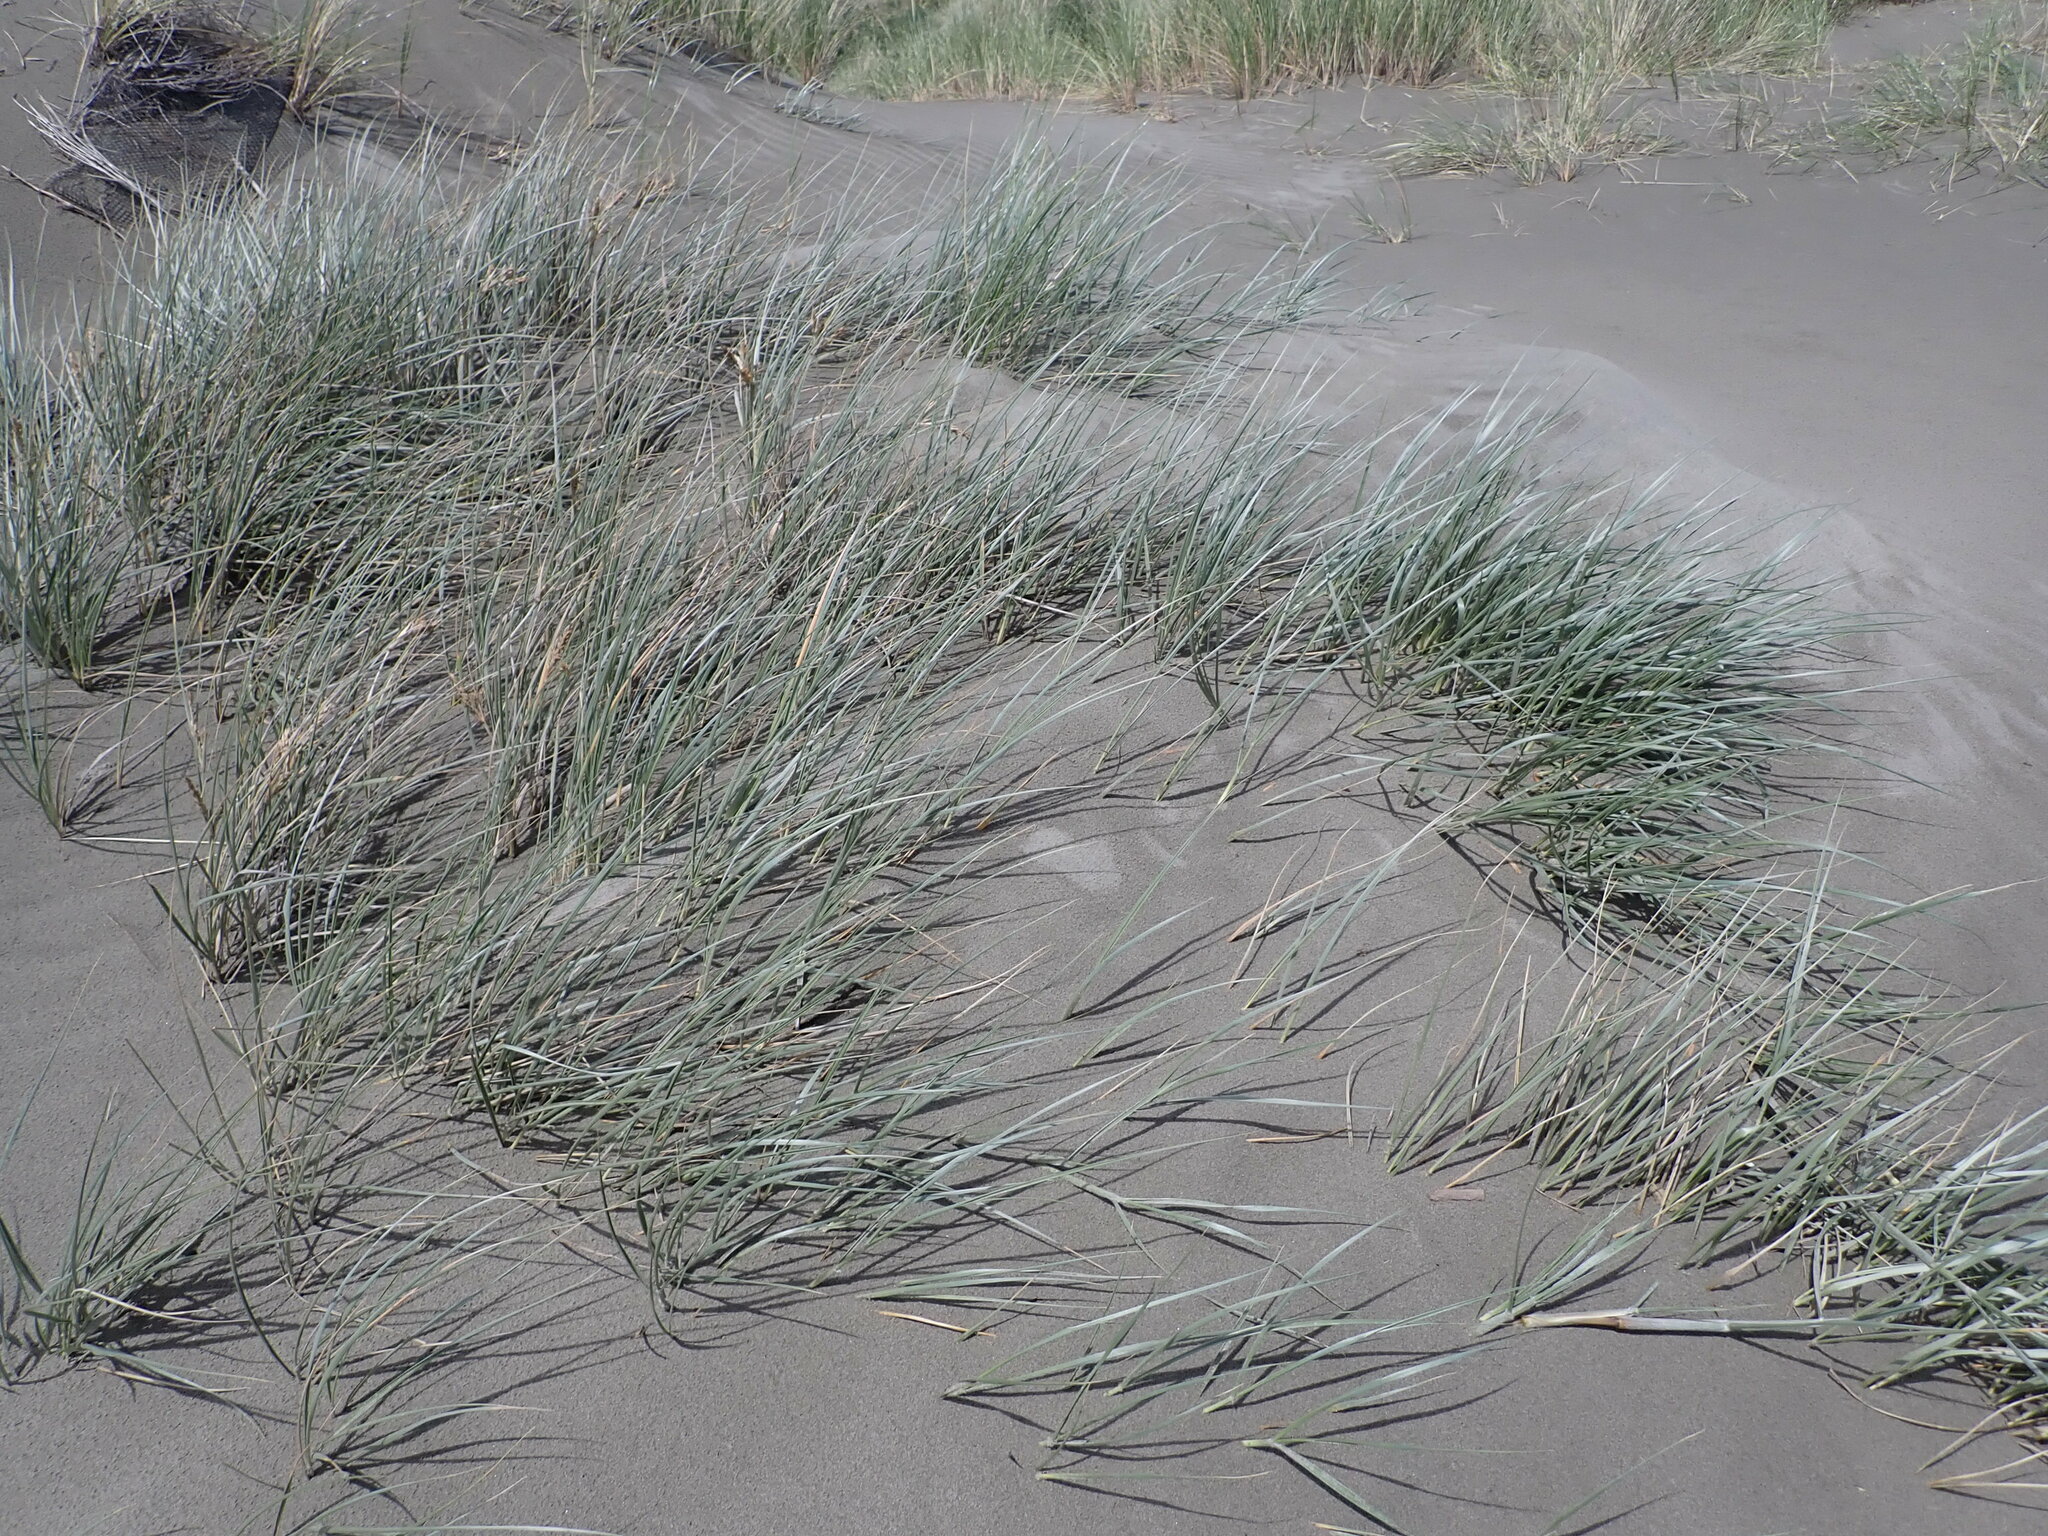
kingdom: Plantae
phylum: Tracheophyta
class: Liliopsida
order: Poales
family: Poaceae
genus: Spinifex
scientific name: Spinifex sericeus
